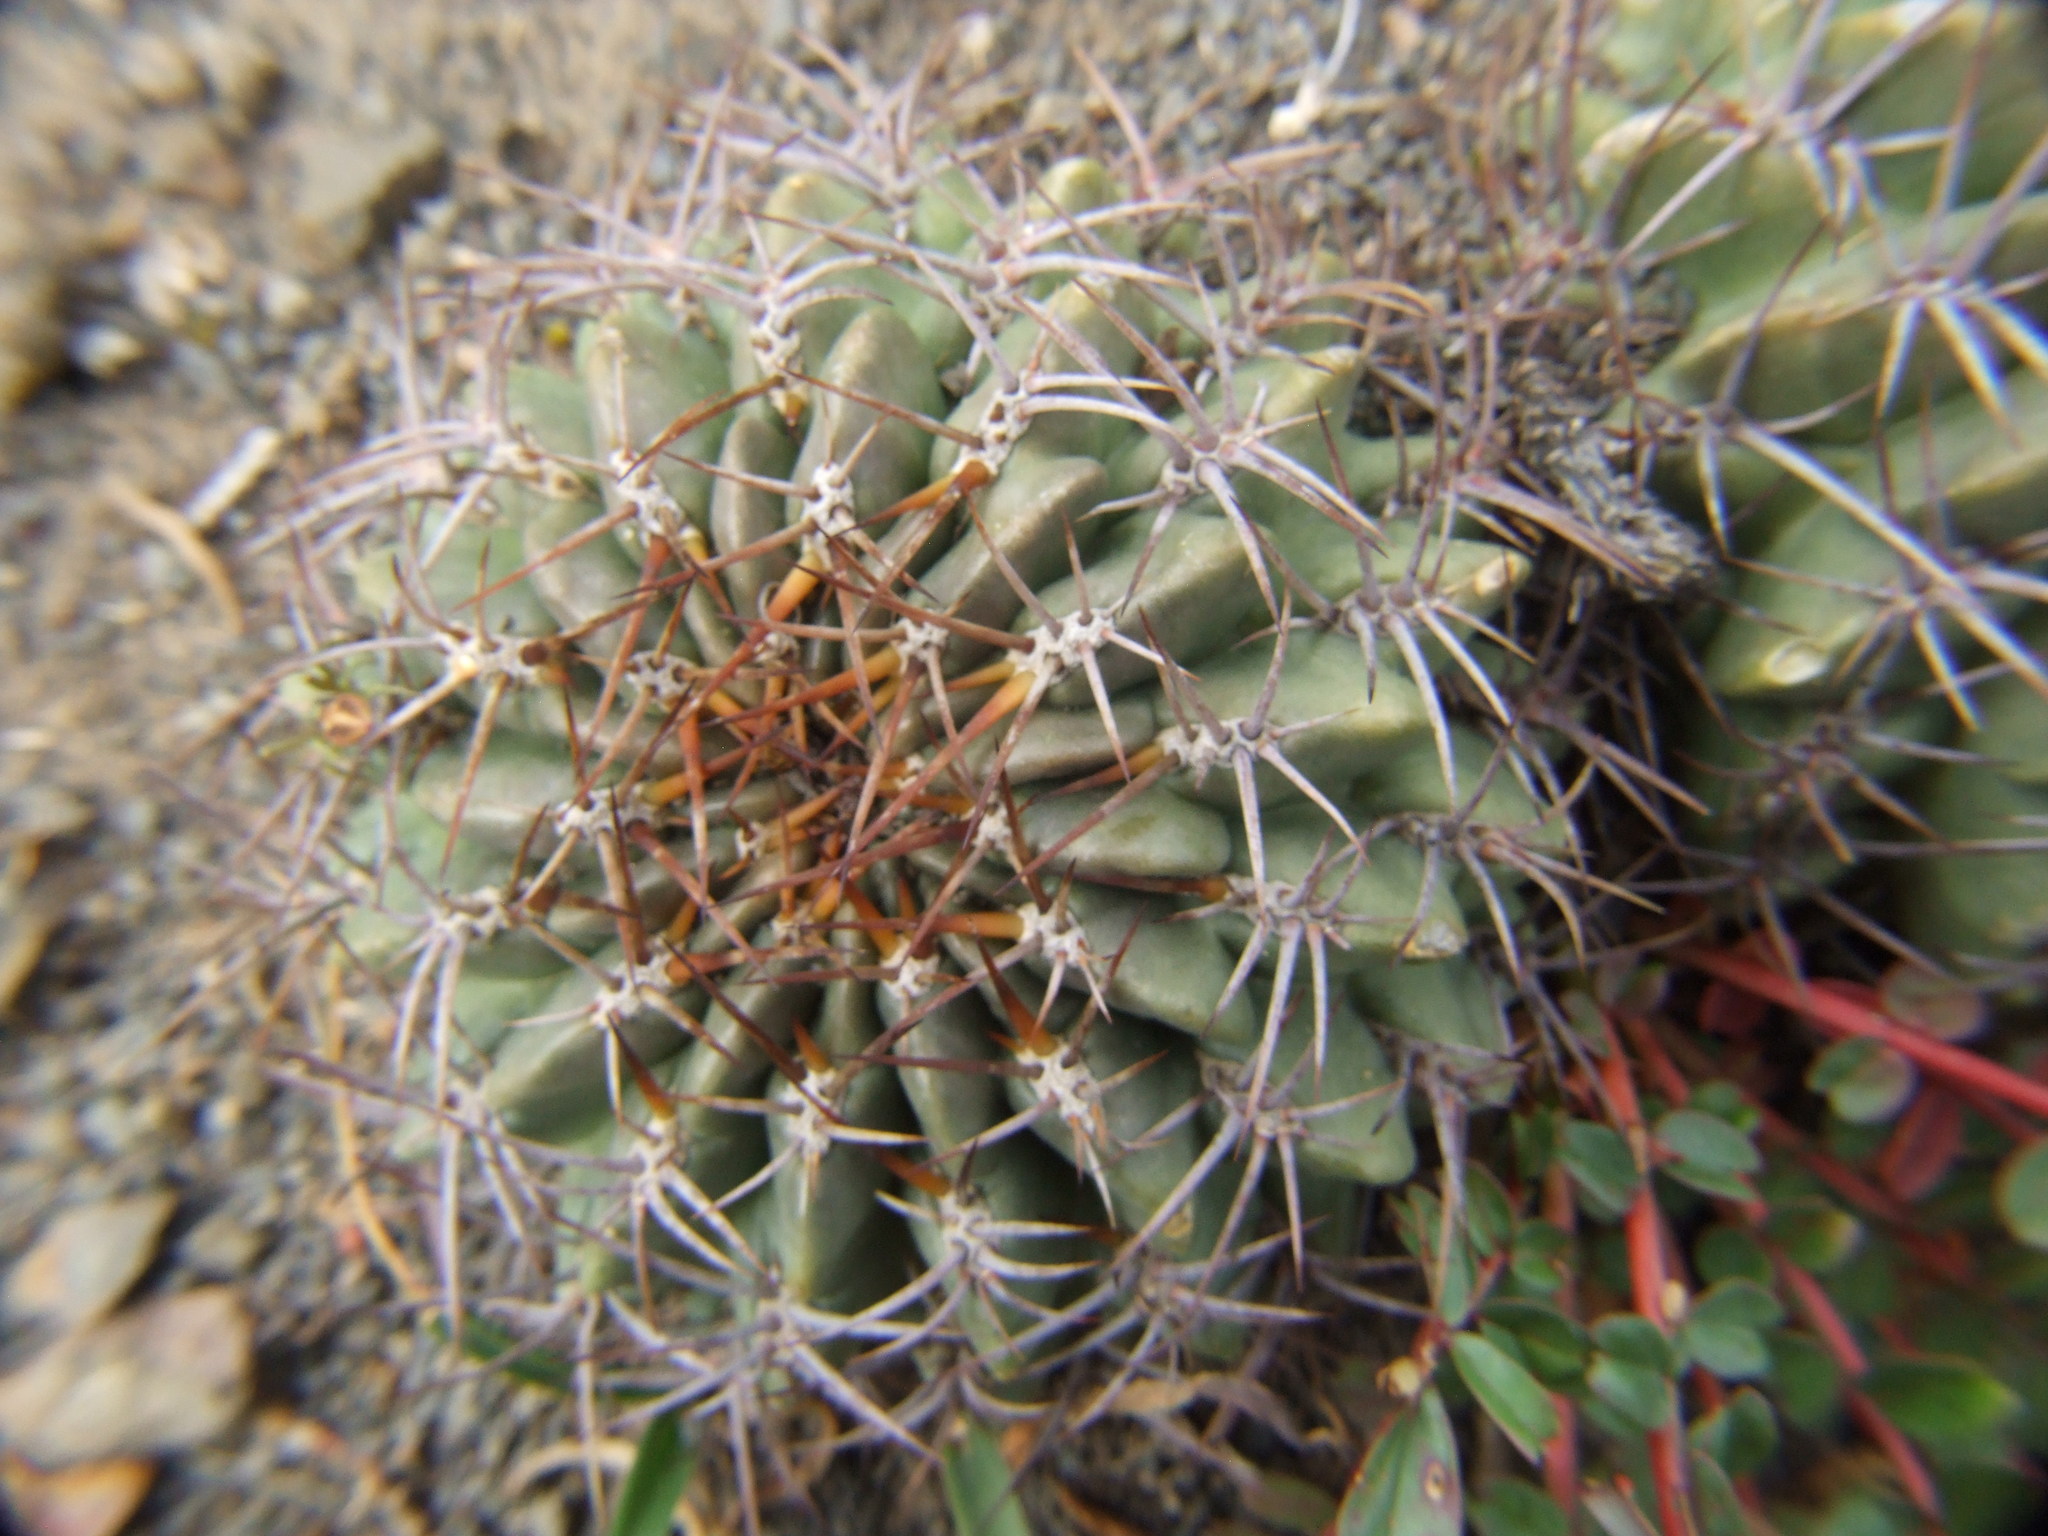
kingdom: Plantae
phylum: Tracheophyta
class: Magnoliopsida
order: Caryophyllales
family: Cactaceae
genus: Lobivia
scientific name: Lobivia maximiliana
